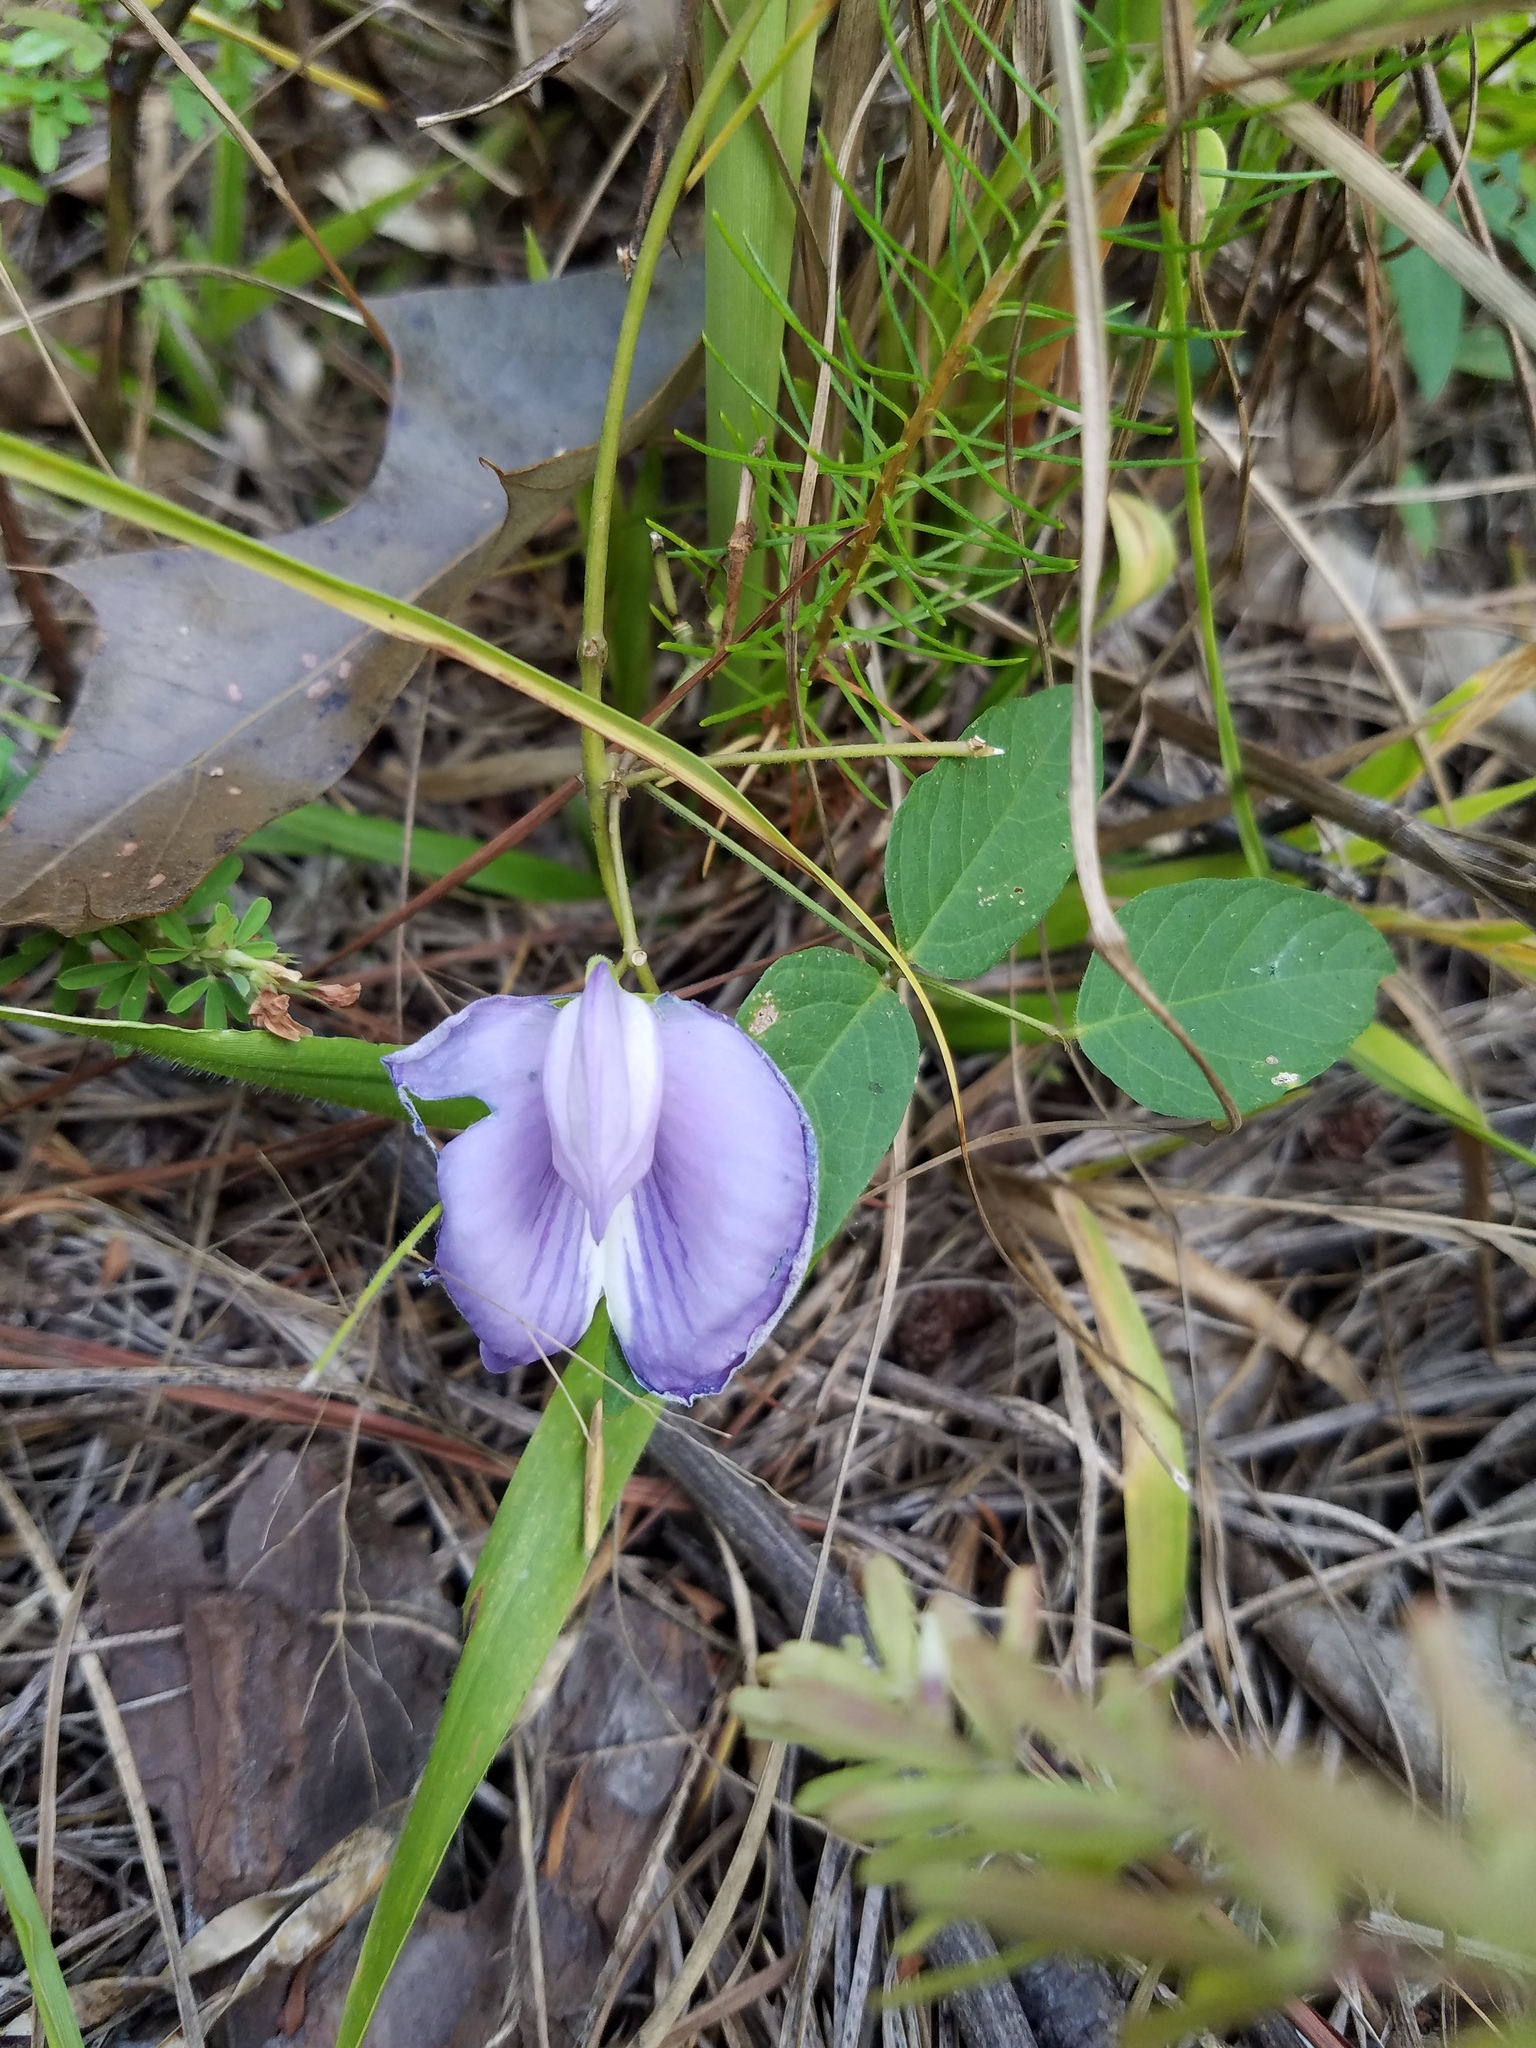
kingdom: Plantae
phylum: Tracheophyta
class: Magnoliopsida
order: Fabales
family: Fabaceae
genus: Centrosema
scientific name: Centrosema virginianum
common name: Butterfly-pea
